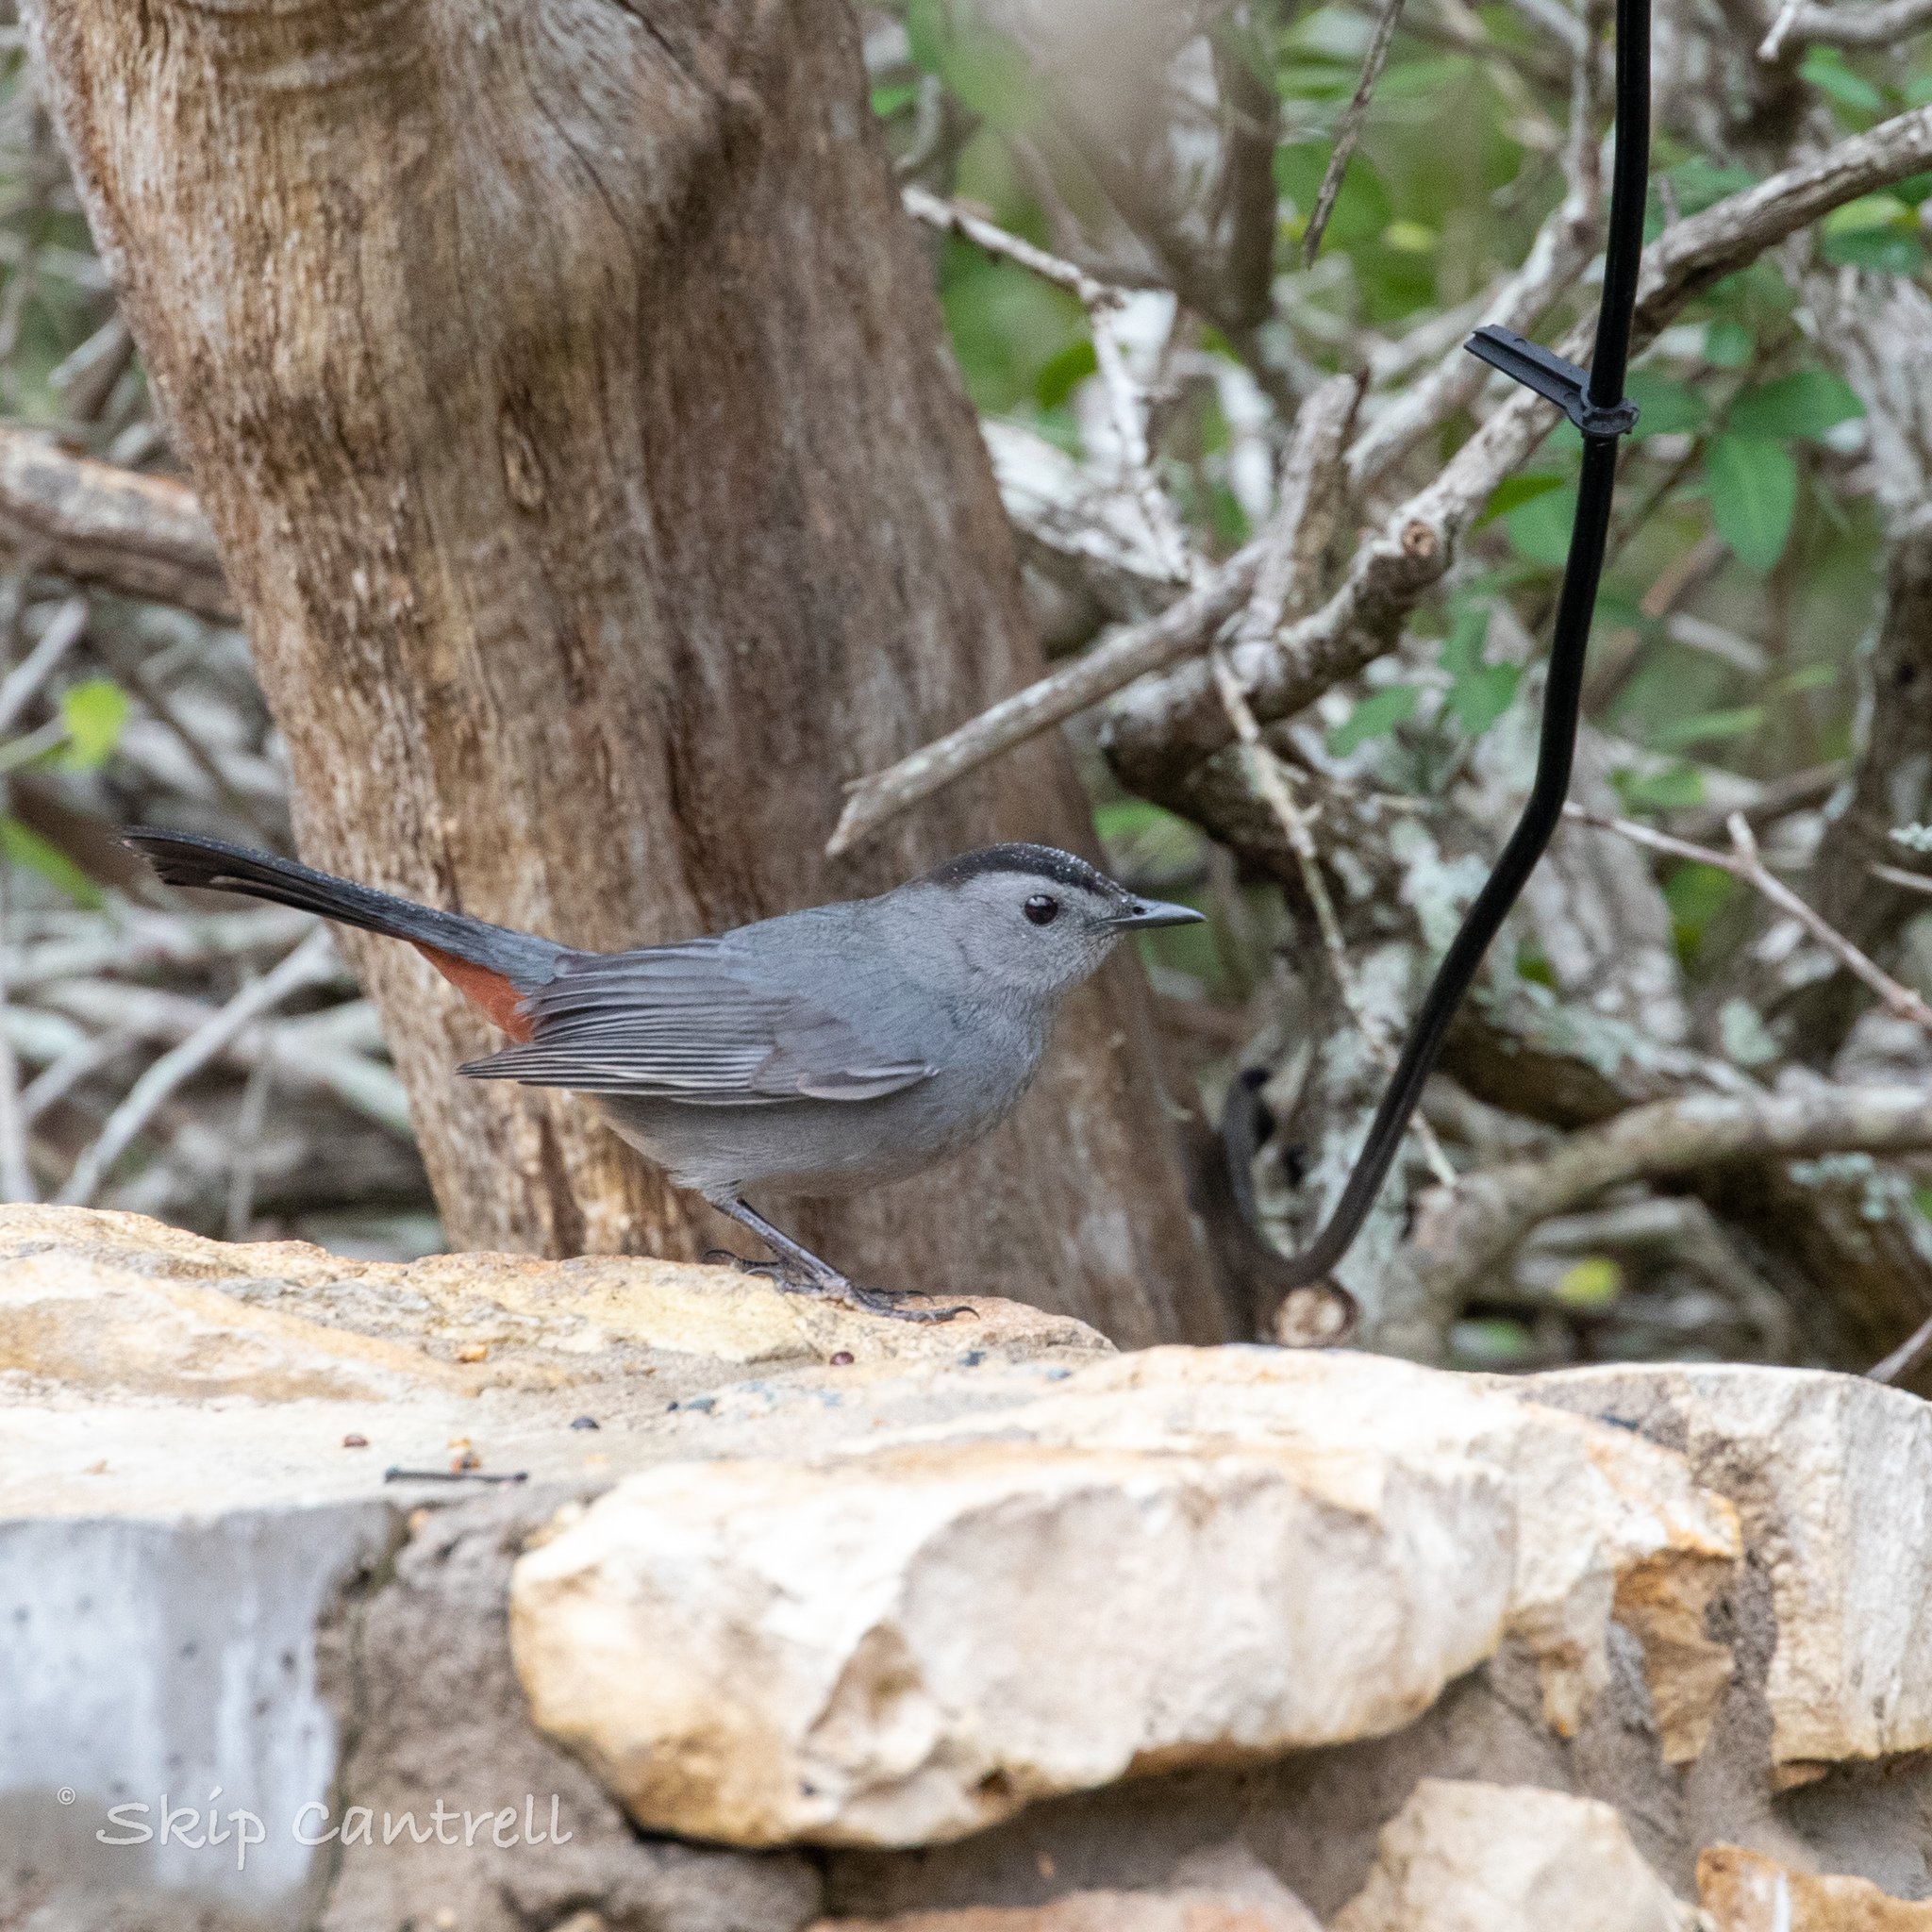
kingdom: Animalia
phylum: Chordata
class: Aves
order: Passeriformes
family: Mimidae
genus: Dumetella
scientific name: Dumetella carolinensis
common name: Gray catbird
